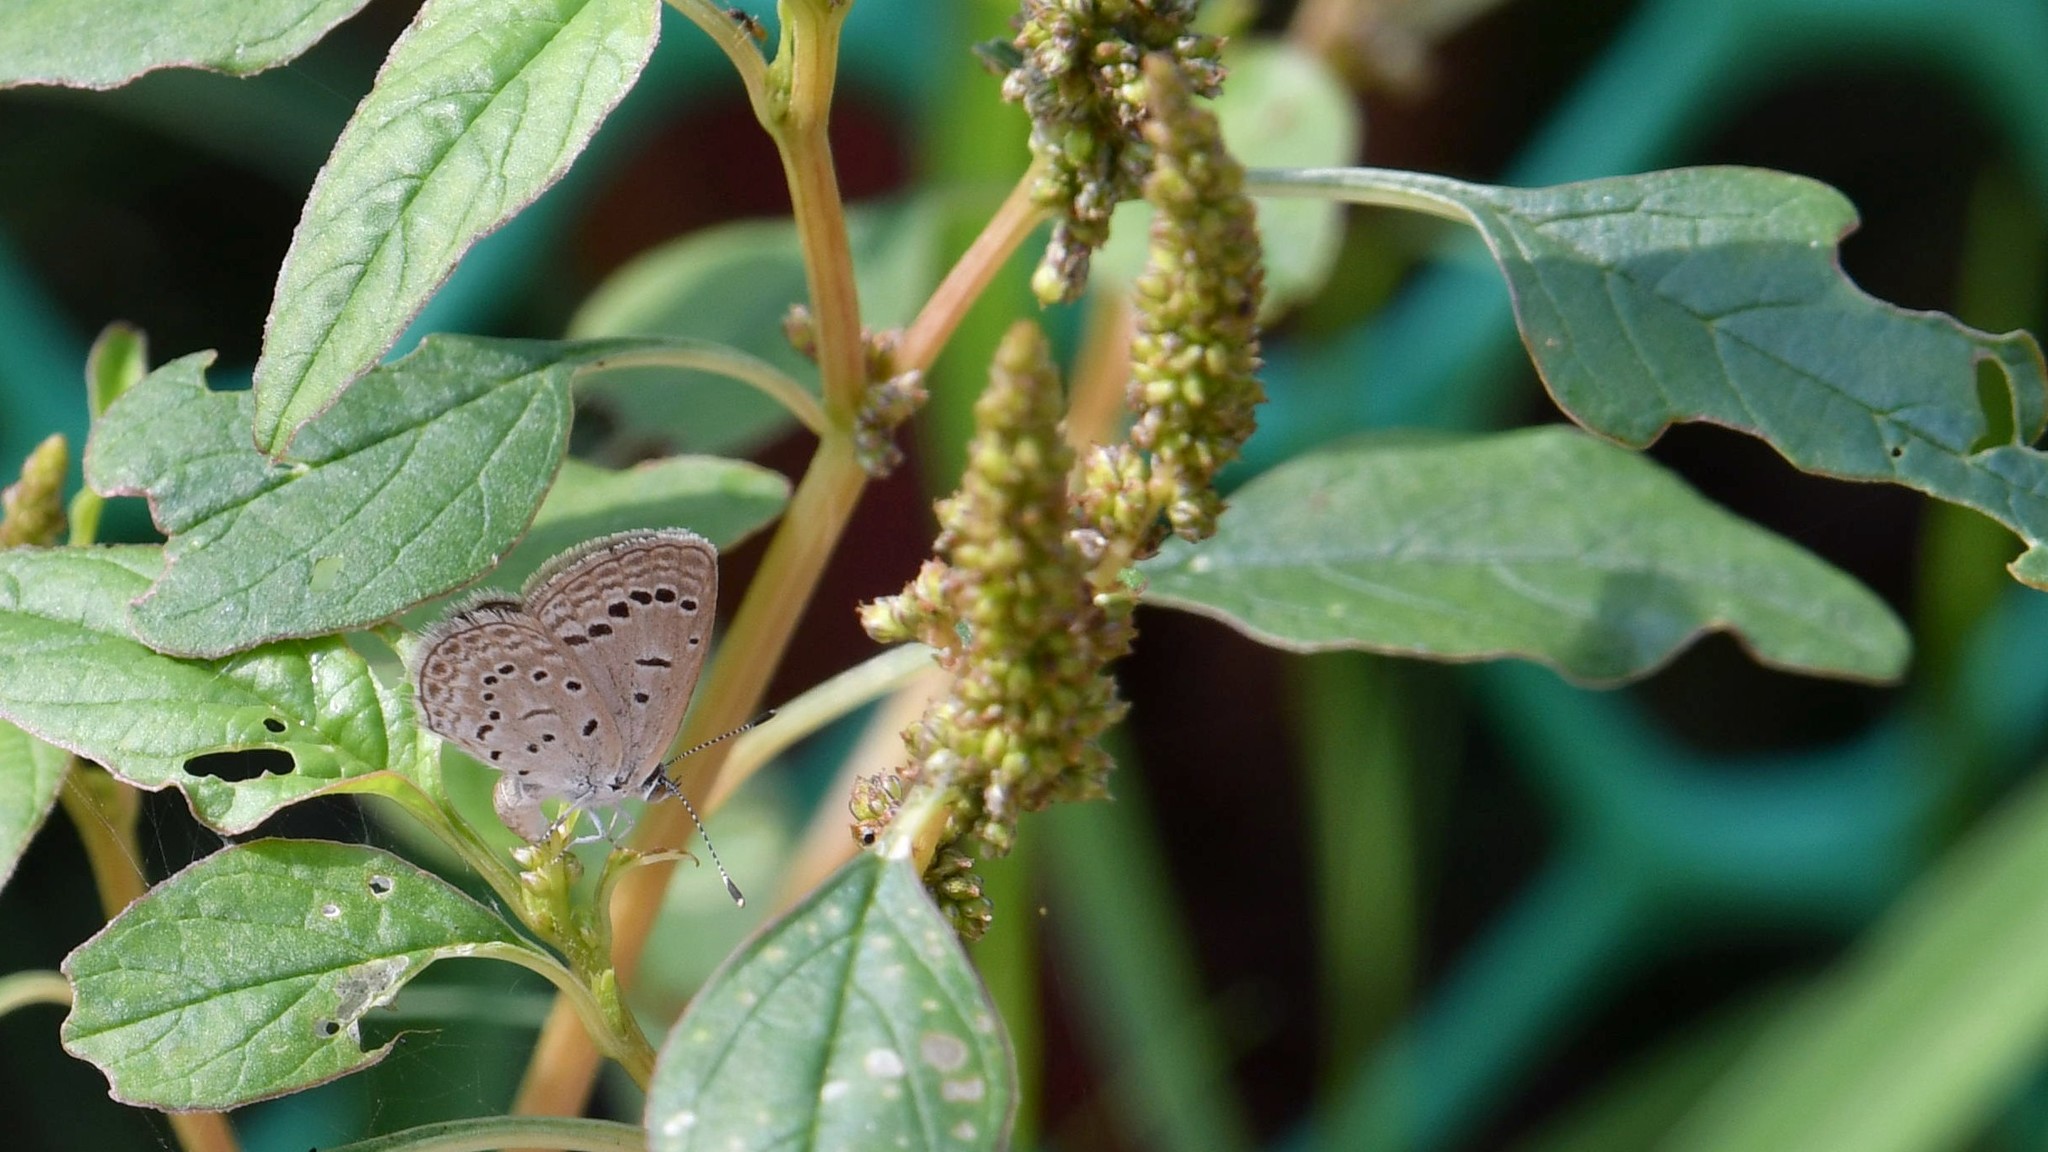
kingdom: Animalia
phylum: Arthropoda
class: Insecta
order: Lepidoptera
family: Lycaenidae
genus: Zizeeria
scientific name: Zizeeria karsandra
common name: Dark grass blue
